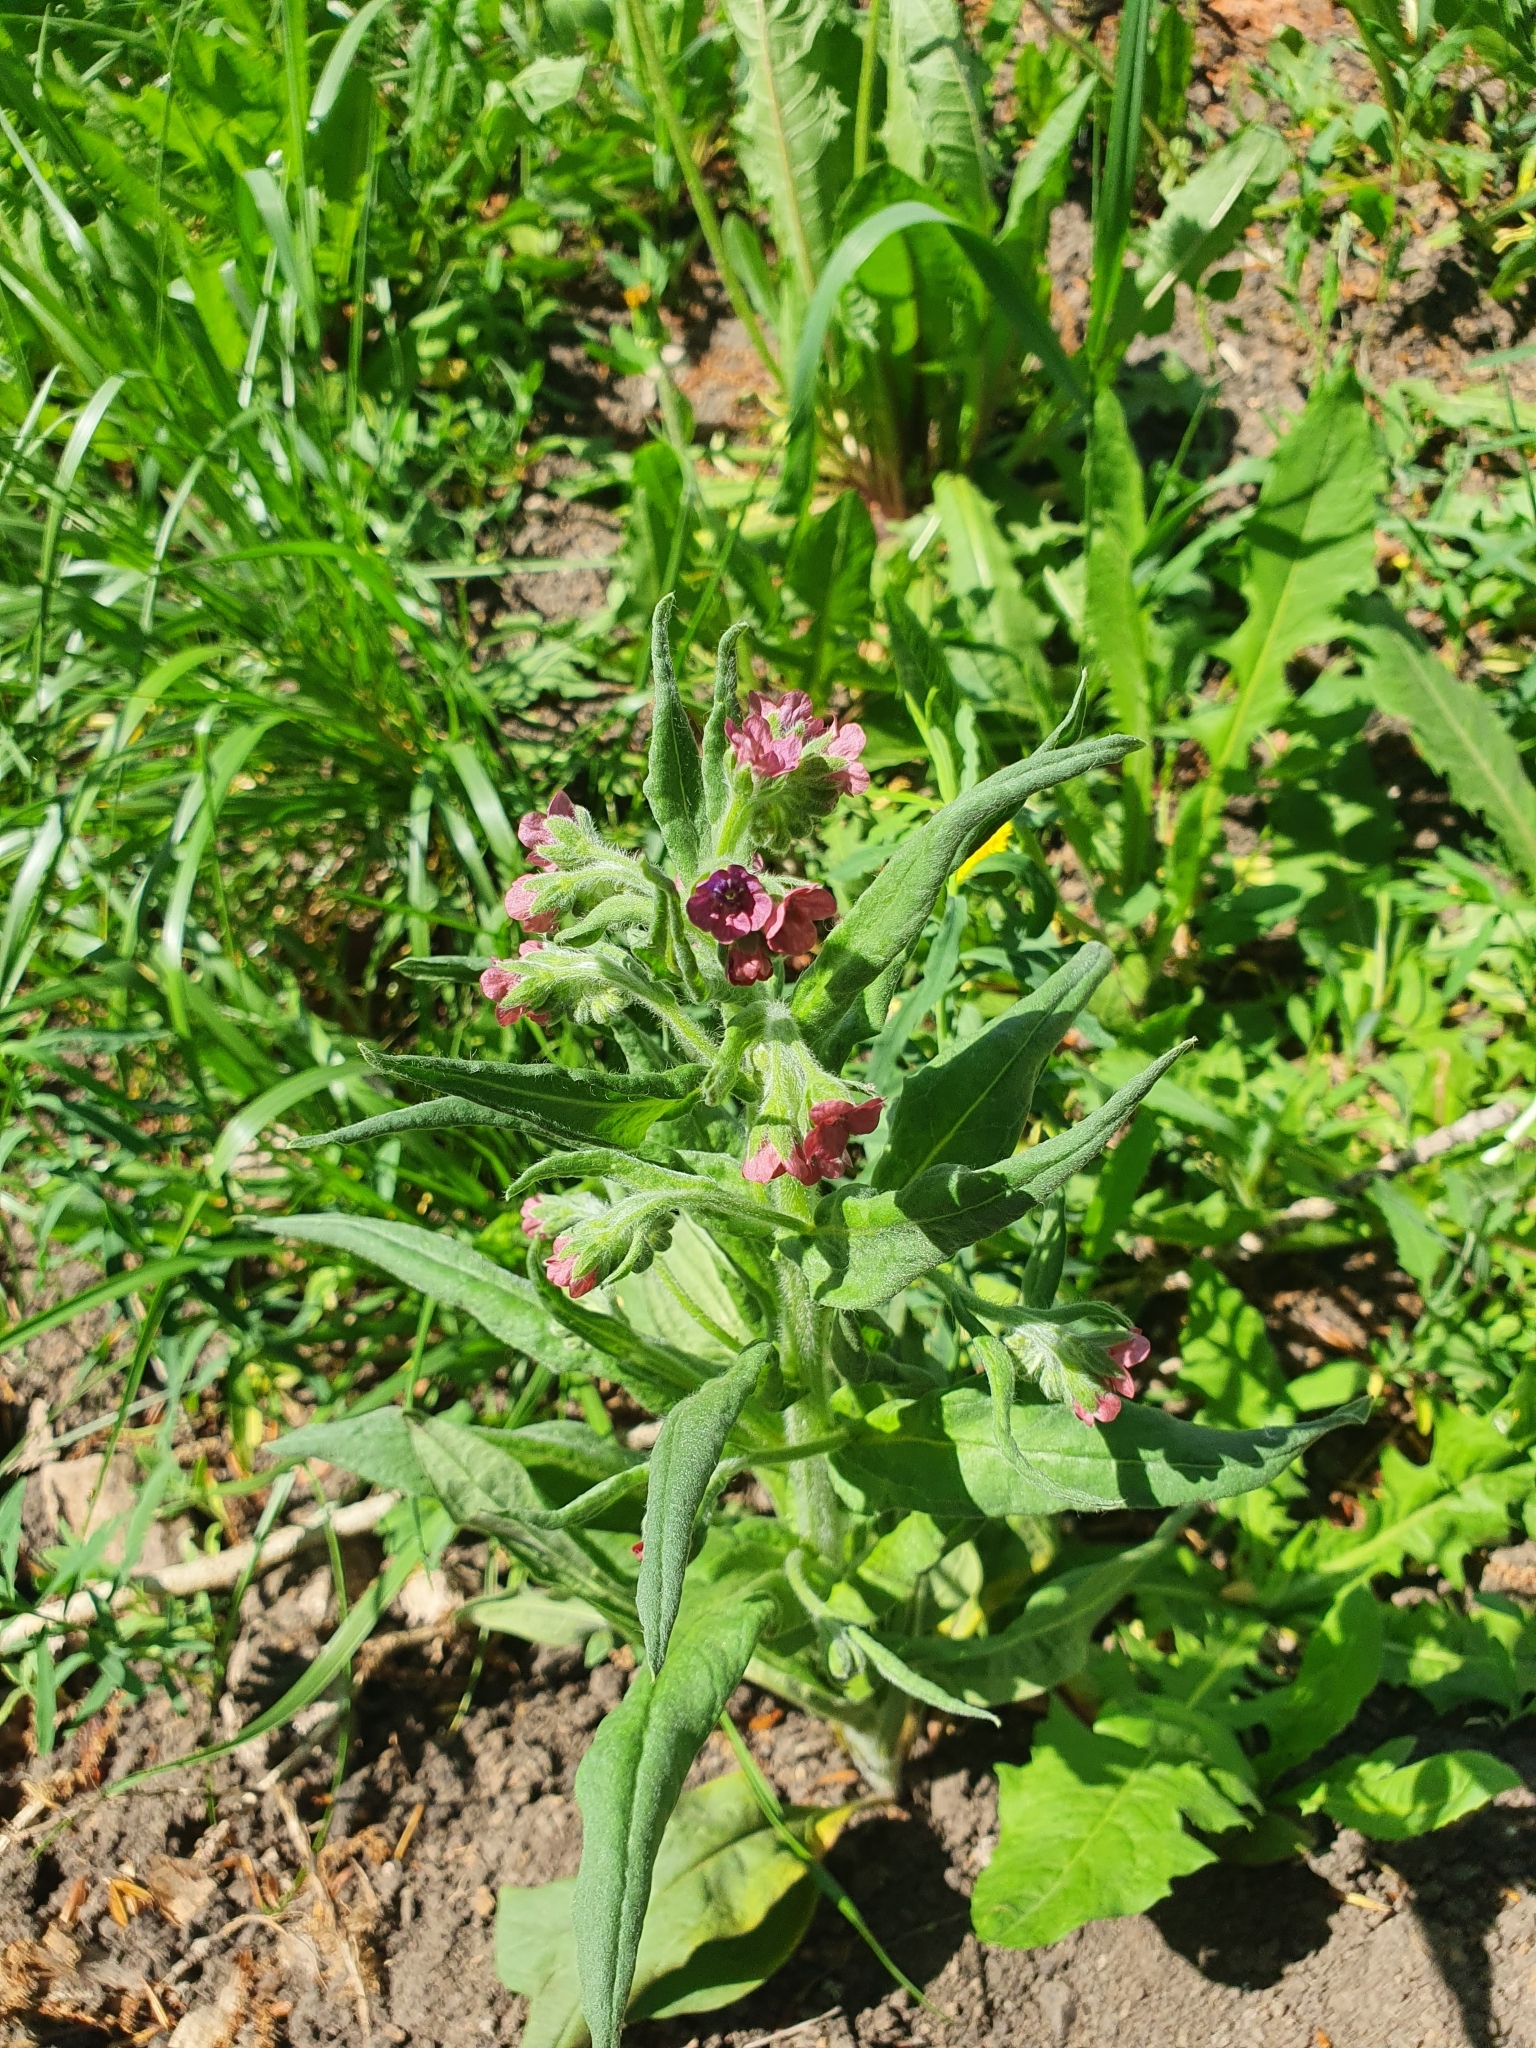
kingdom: Plantae
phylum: Tracheophyta
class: Magnoliopsida
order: Boraginales
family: Boraginaceae
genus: Cynoglossum
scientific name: Cynoglossum officinale
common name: Hound's-tongue
